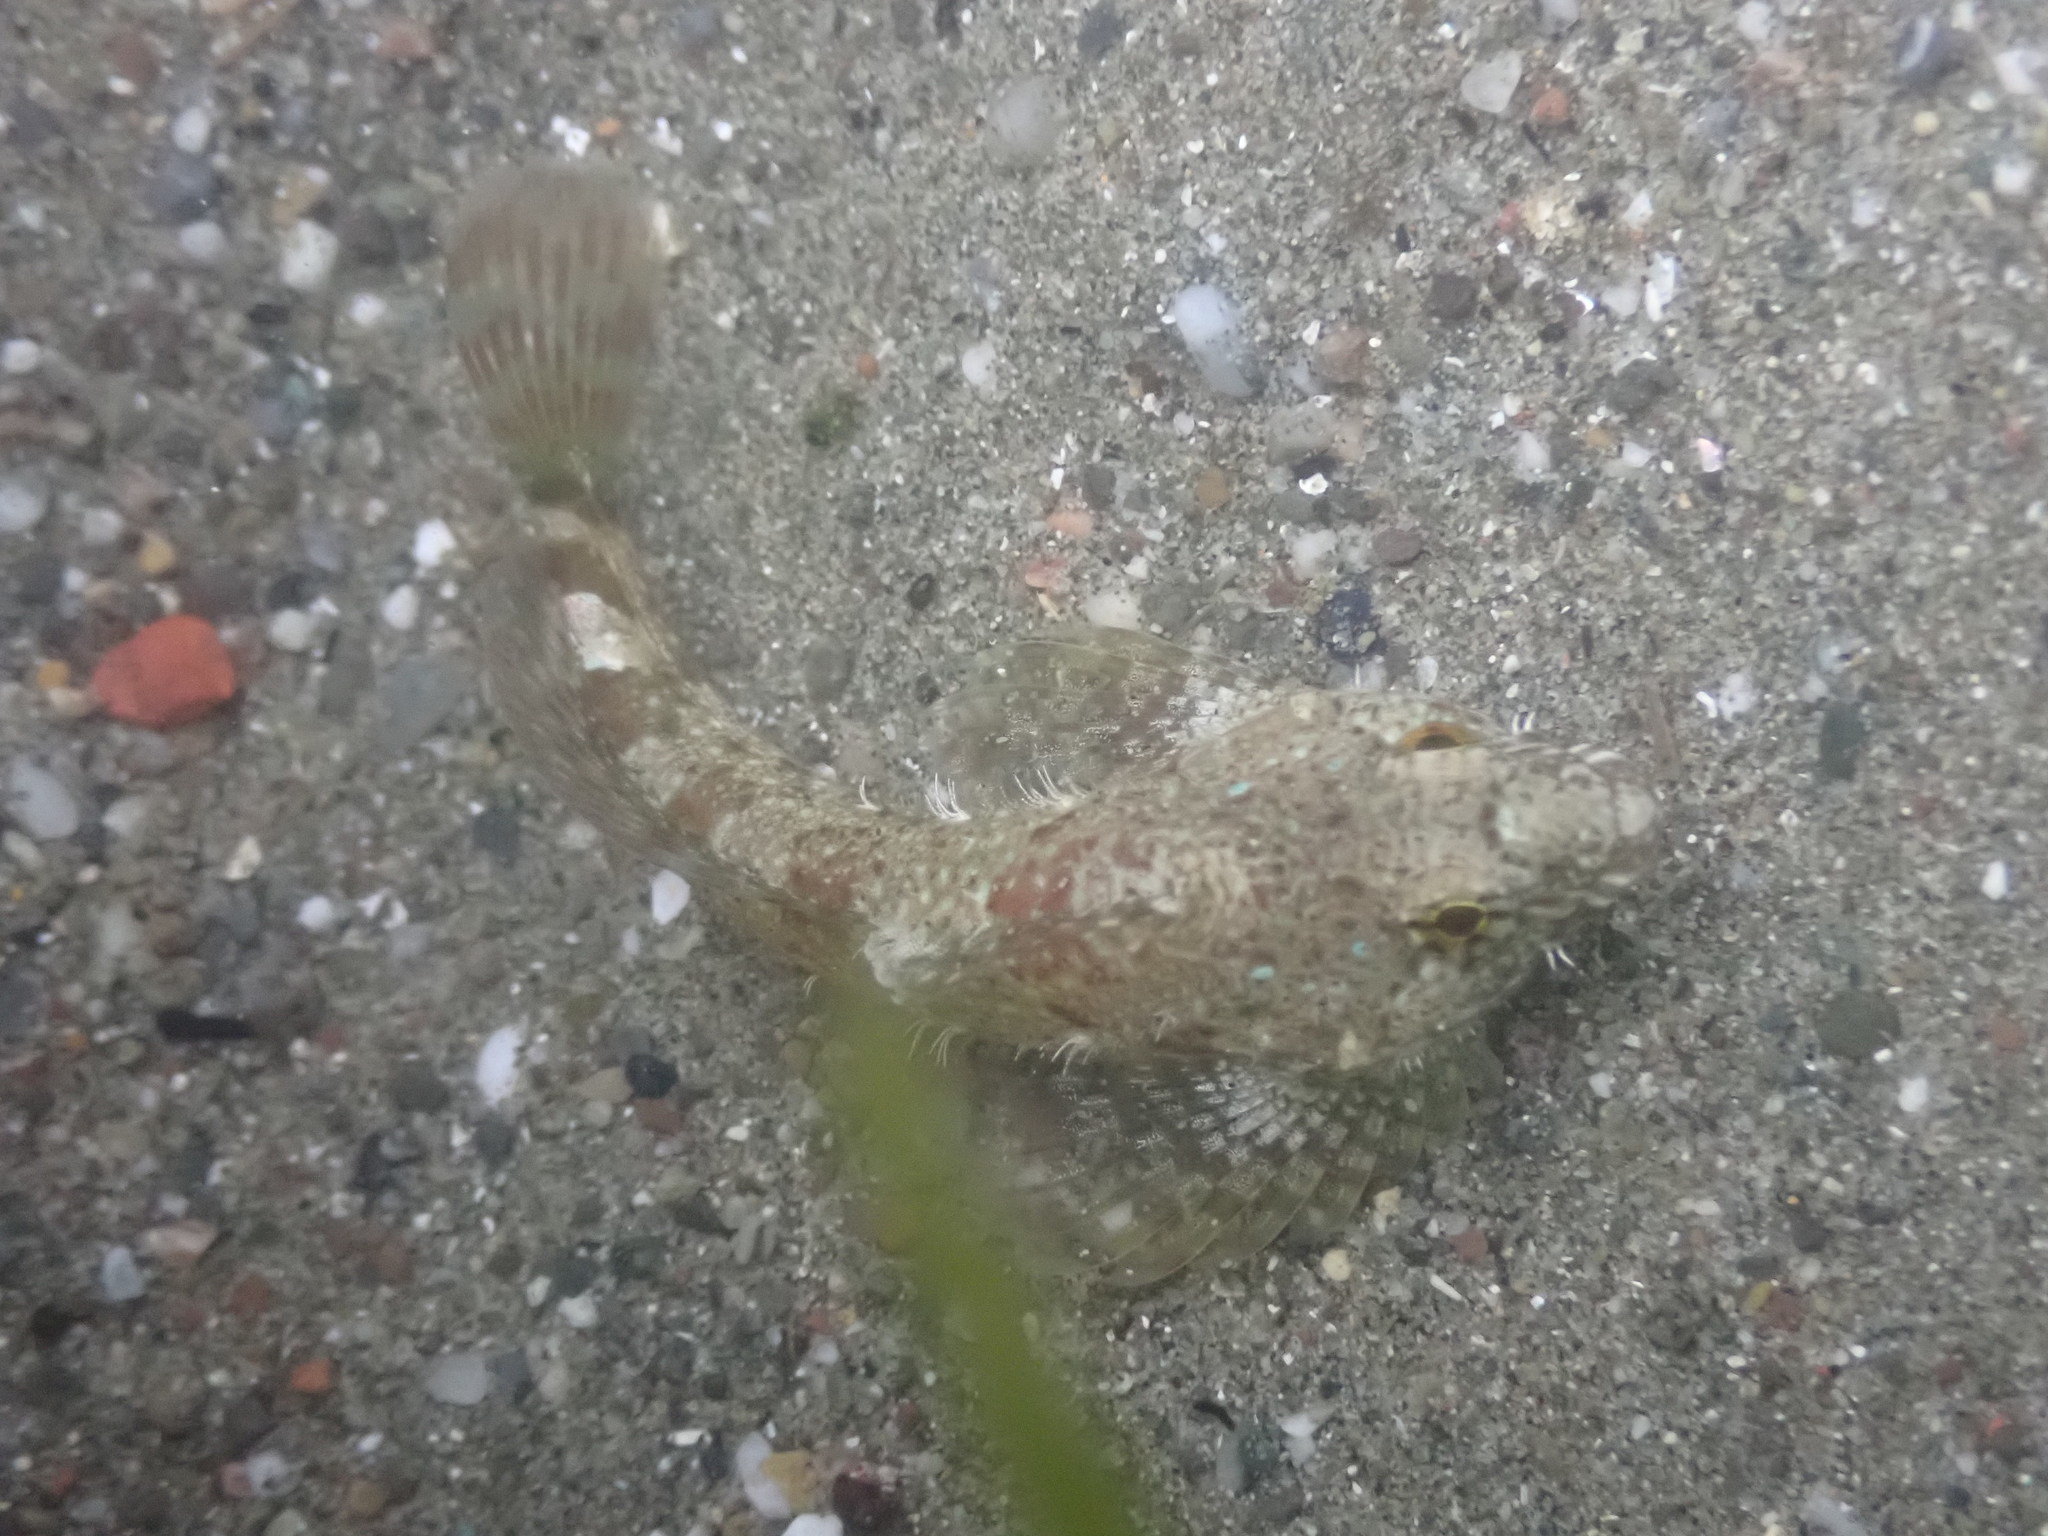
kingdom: Animalia
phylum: Chordata
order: Scorpaeniformes
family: Cottidae
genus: Clinocottus
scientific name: Clinocottus analis
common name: Woolly sculpin
